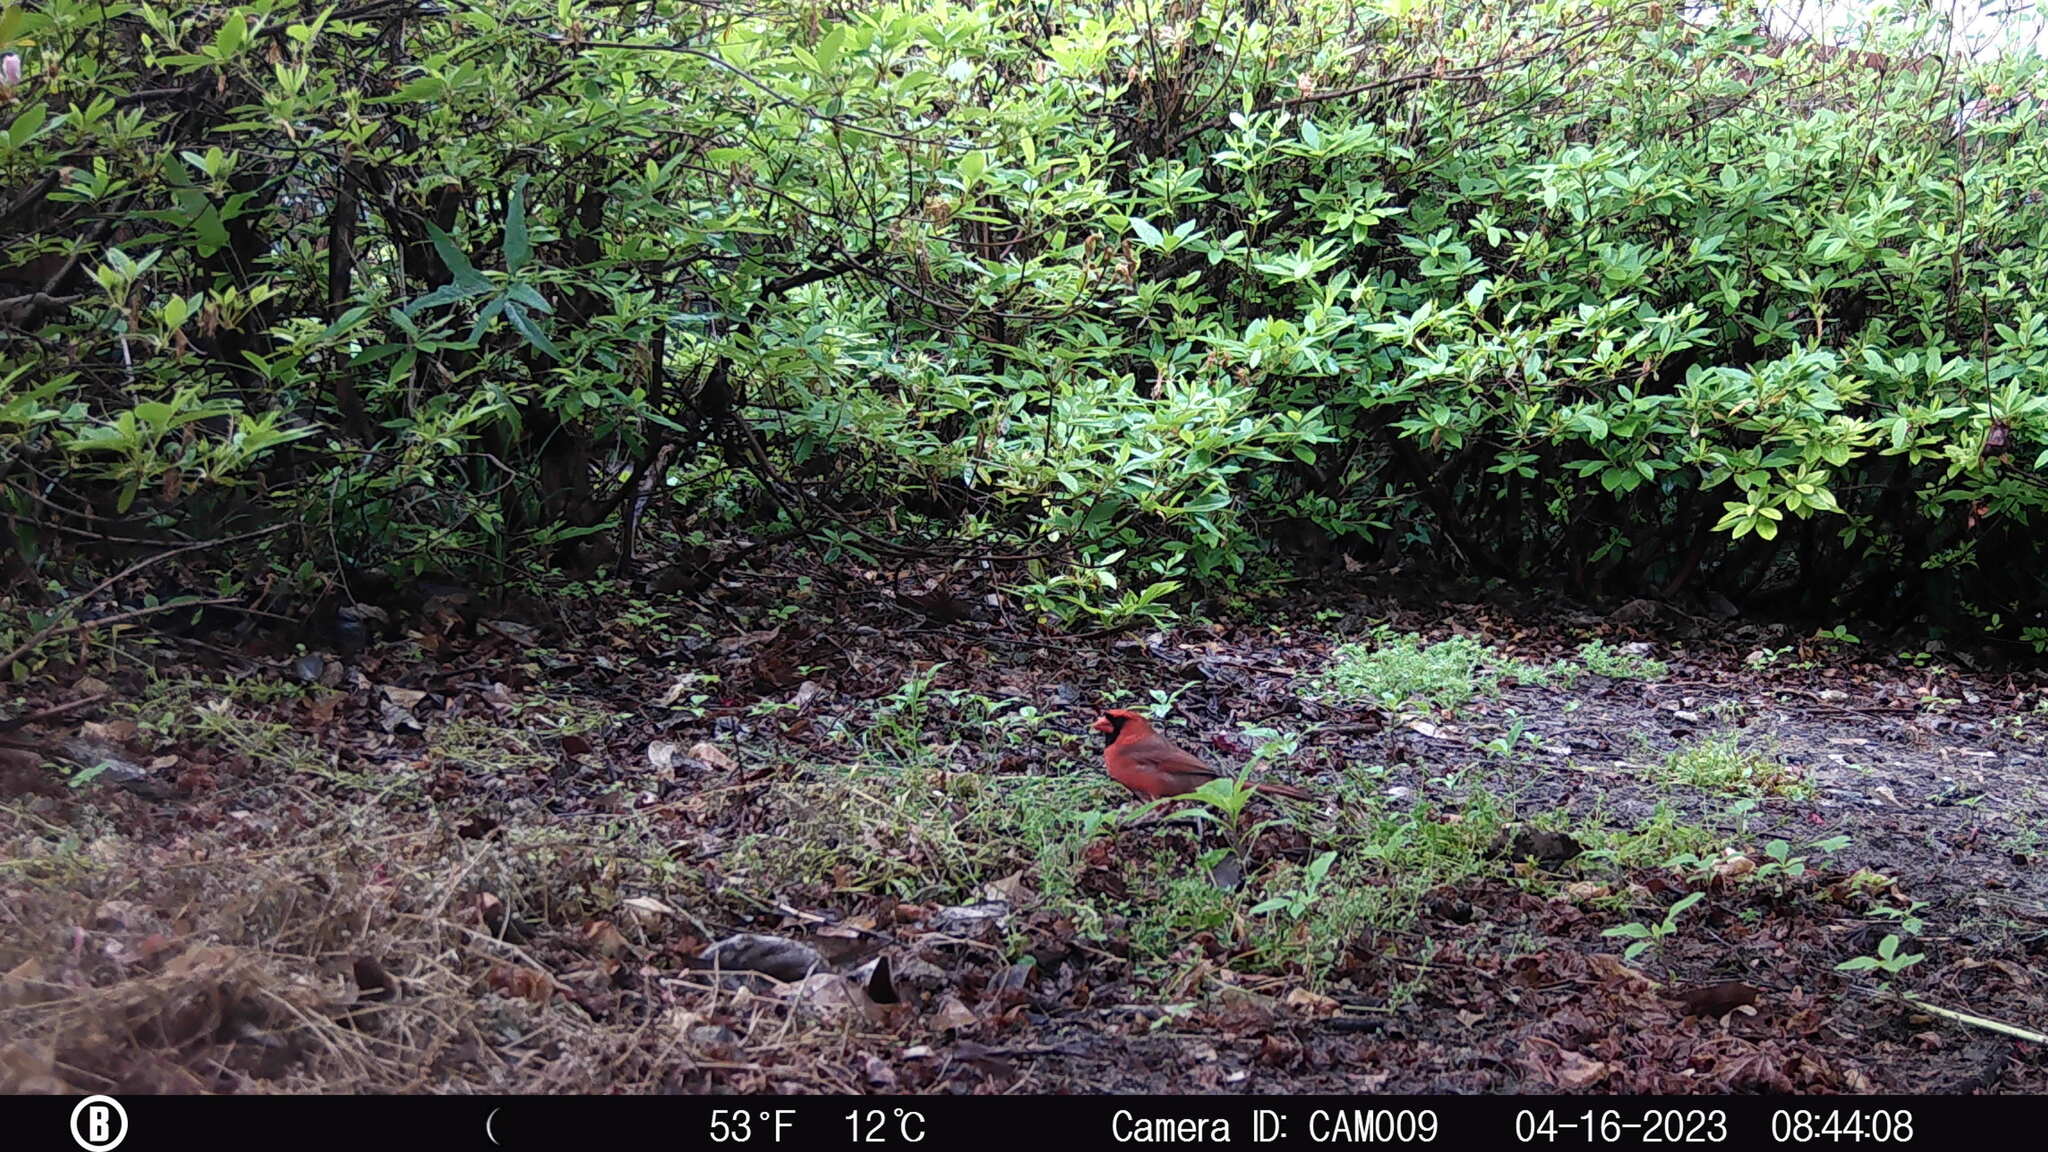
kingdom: Animalia
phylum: Chordata
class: Aves
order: Passeriformes
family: Cardinalidae
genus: Cardinalis
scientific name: Cardinalis cardinalis
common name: Northern cardinal
